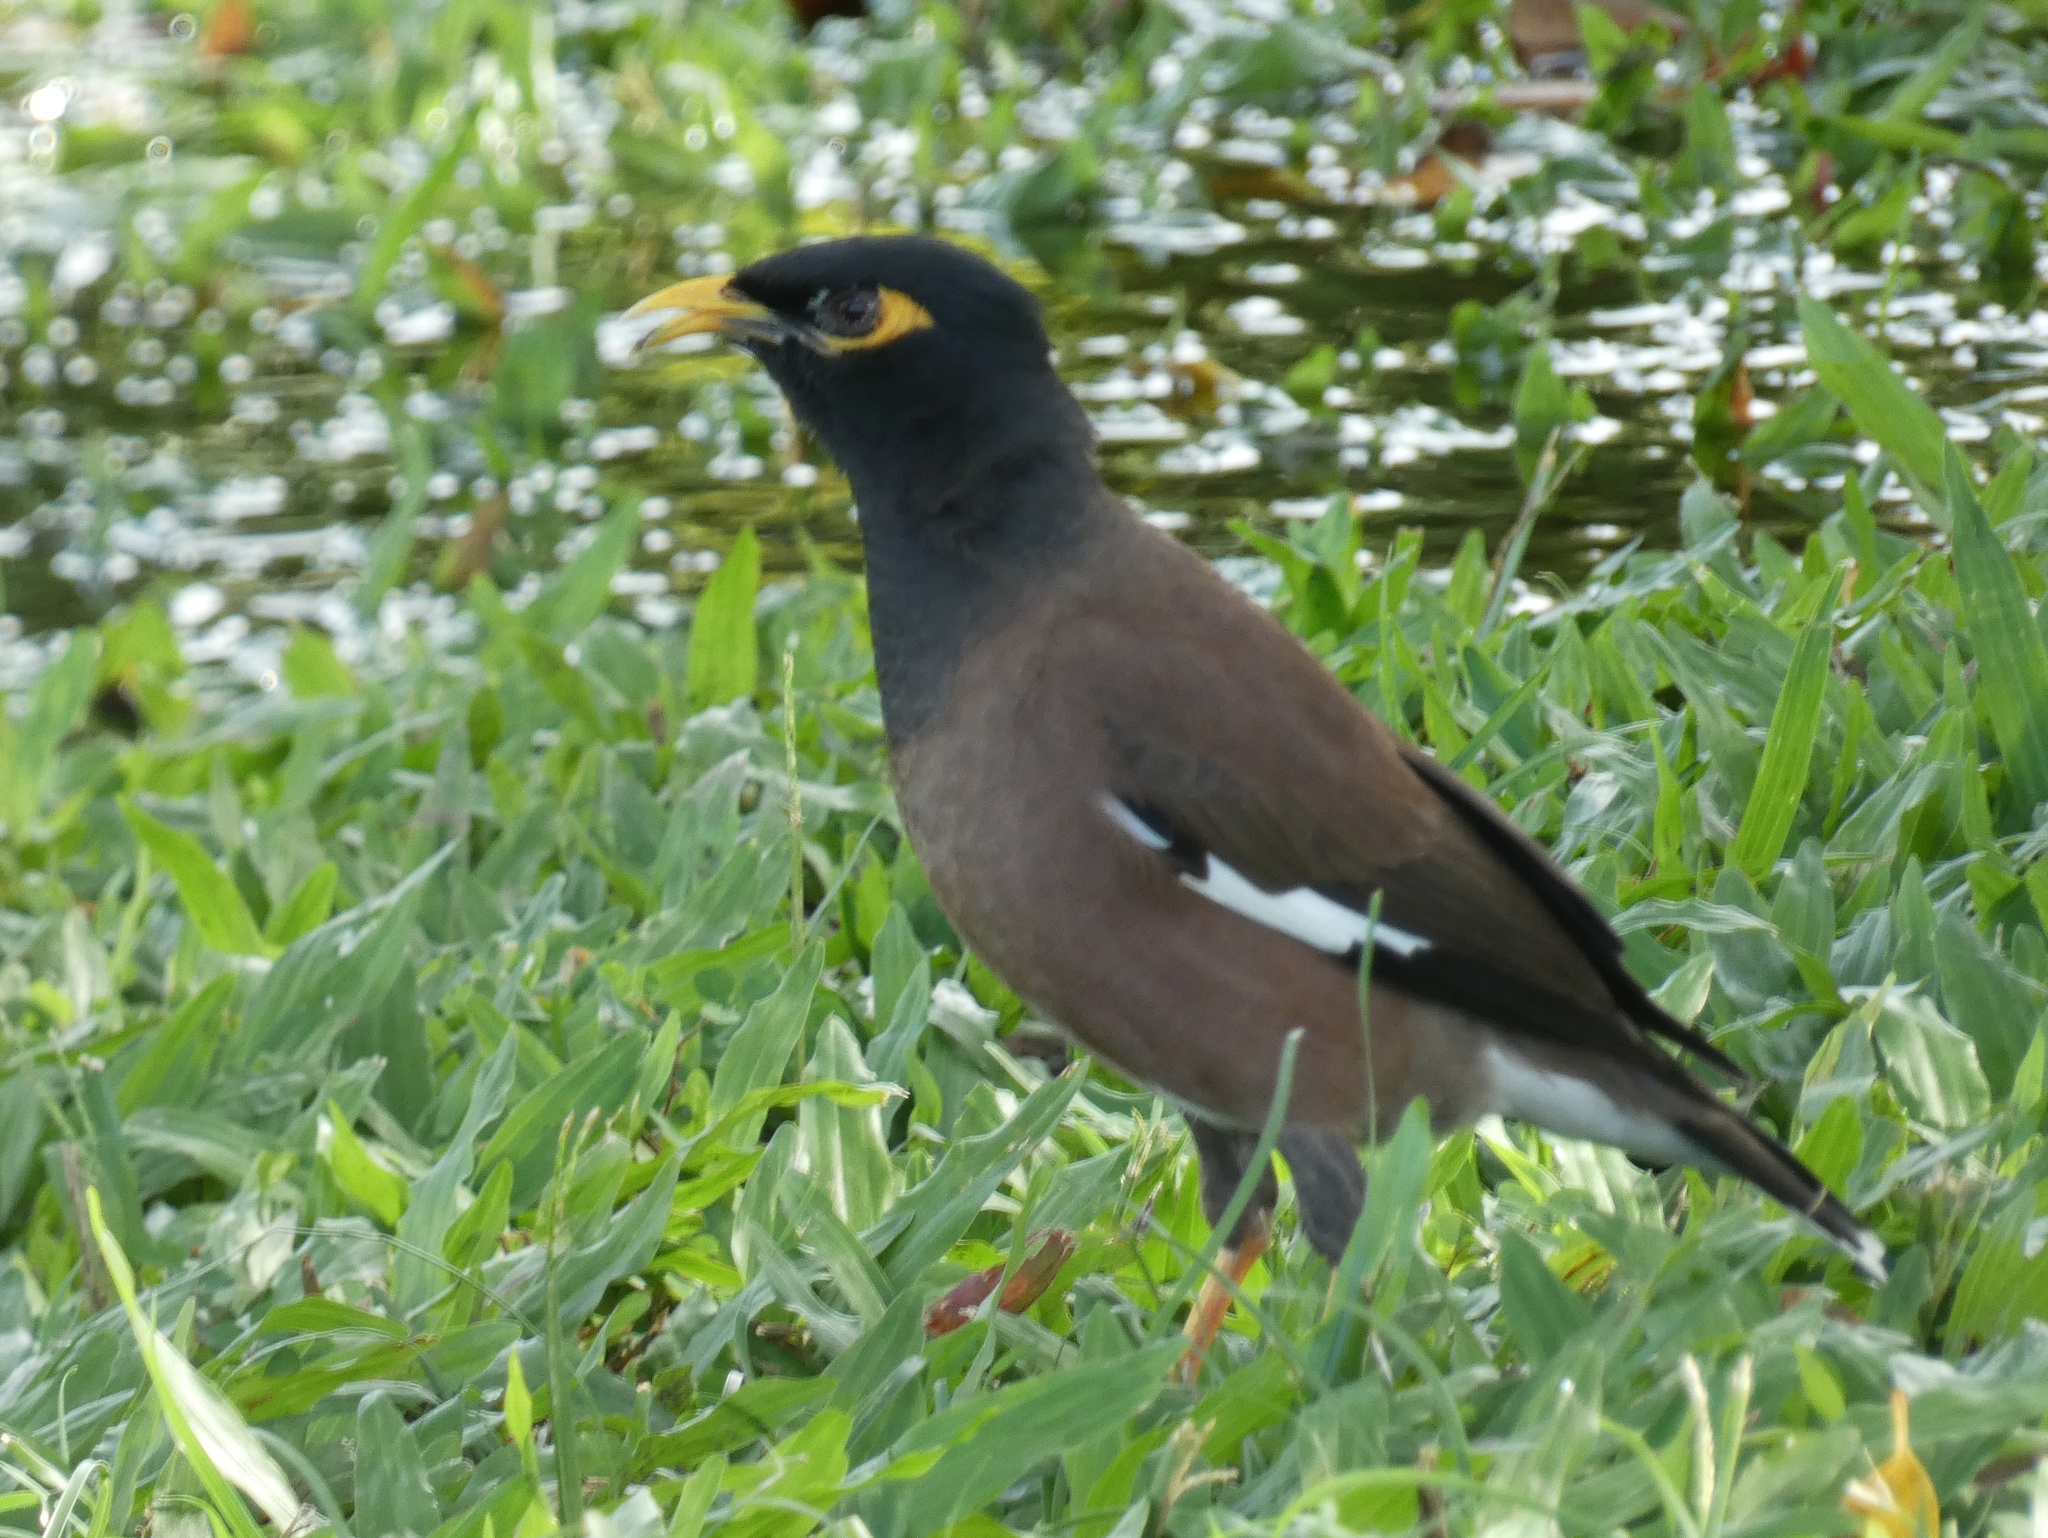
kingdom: Animalia
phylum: Chordata
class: Aves
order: Passeriformes
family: Sturnidae
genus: Acridotheres
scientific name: Acridotheres tristis
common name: Common myna
